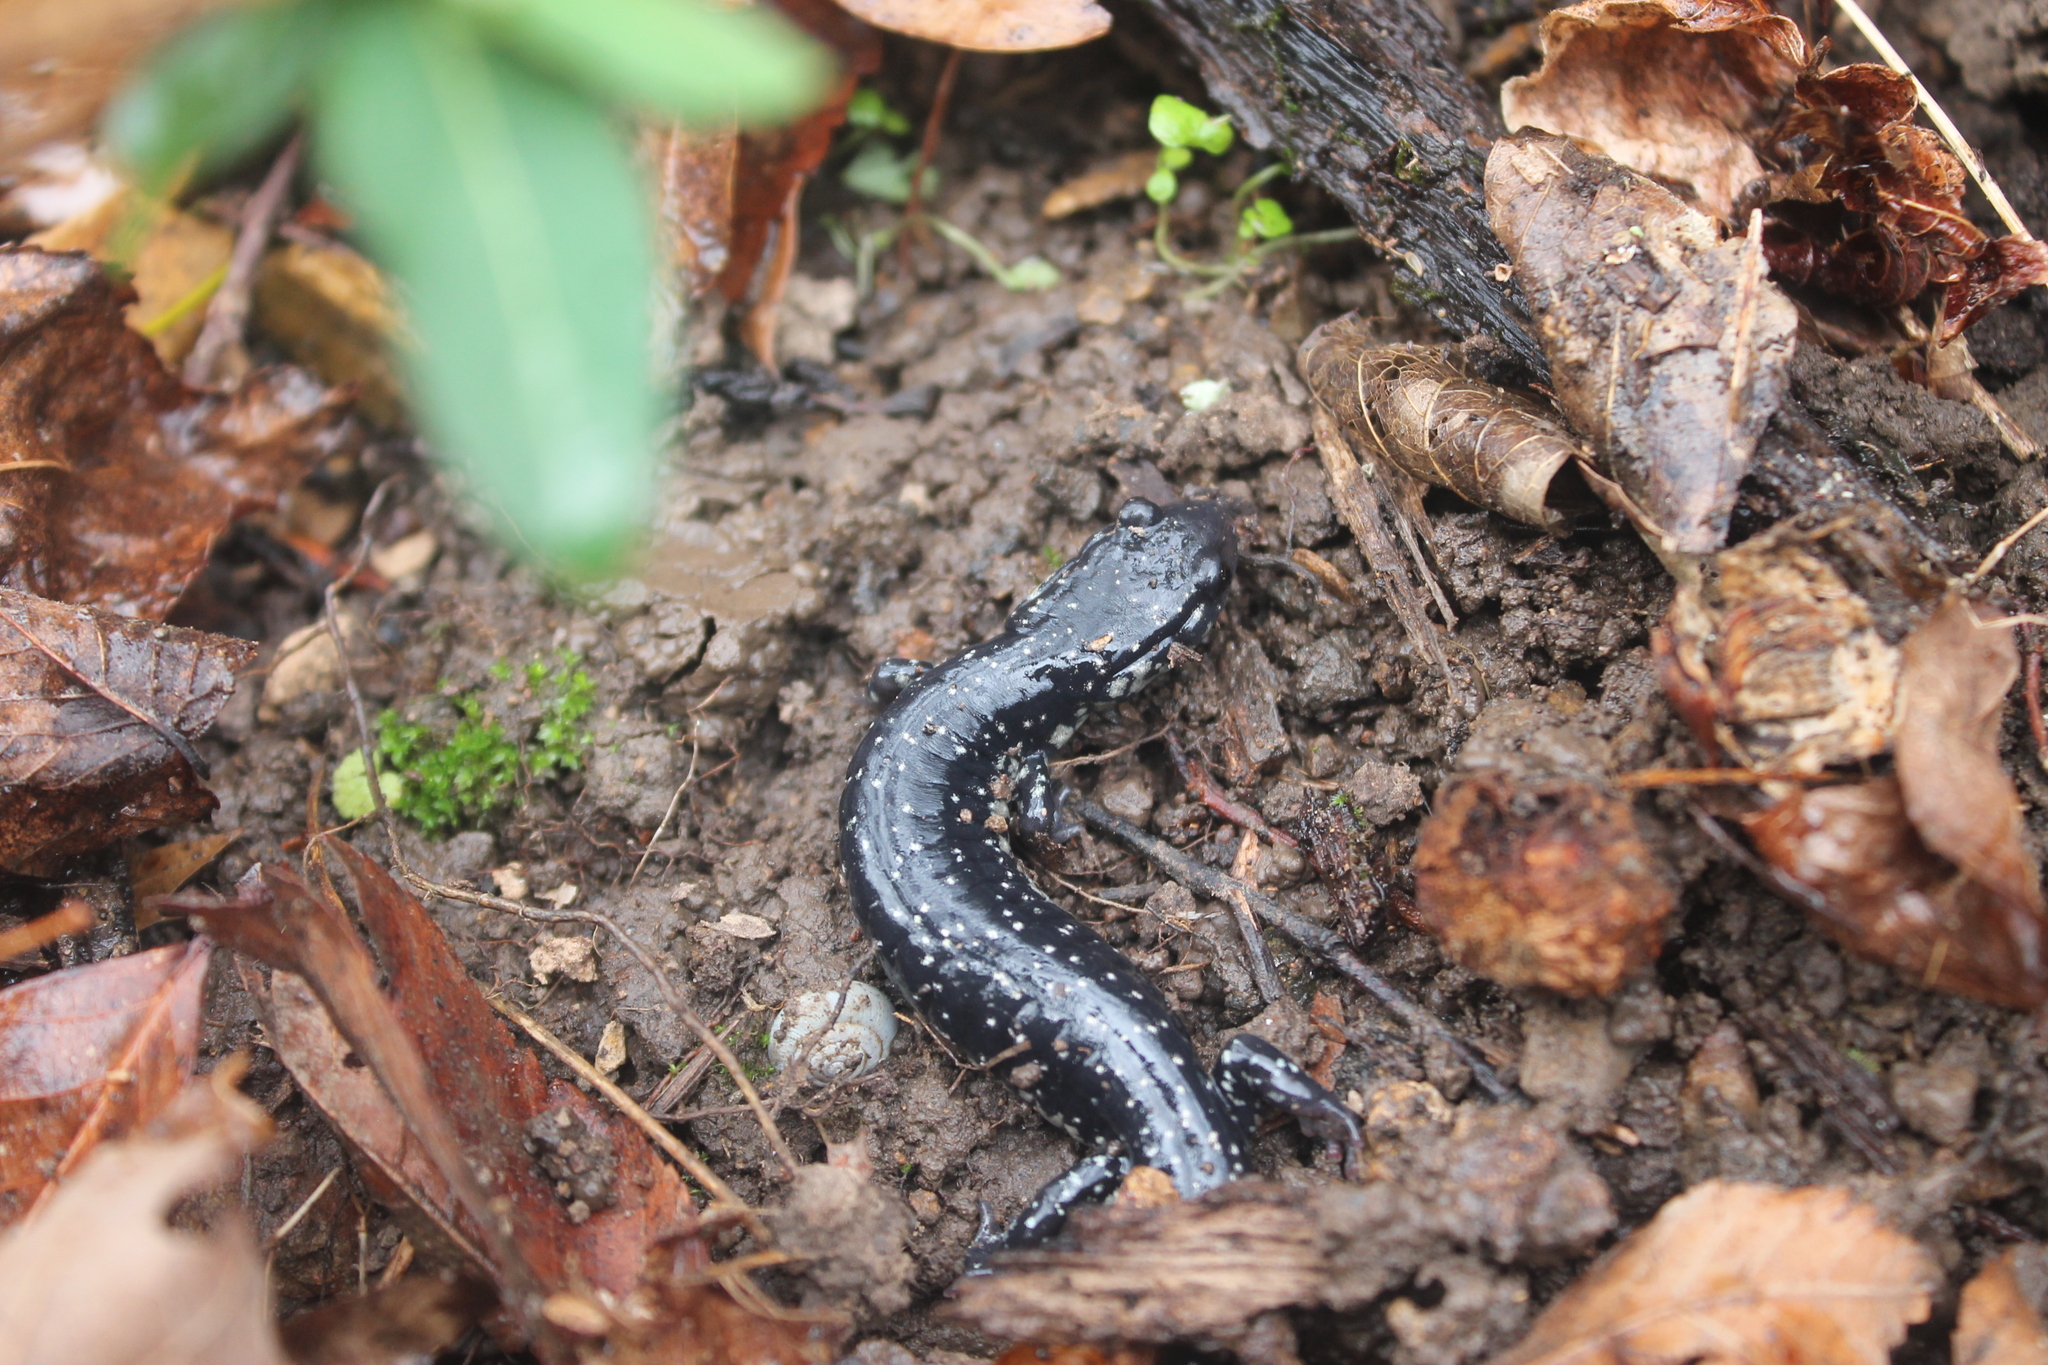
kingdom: Animalia
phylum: Chordata
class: Amphibia
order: Caudata
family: Plethodontidae
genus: Plethodon
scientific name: Plethodon glutinosus
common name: Northern slimy salamander
